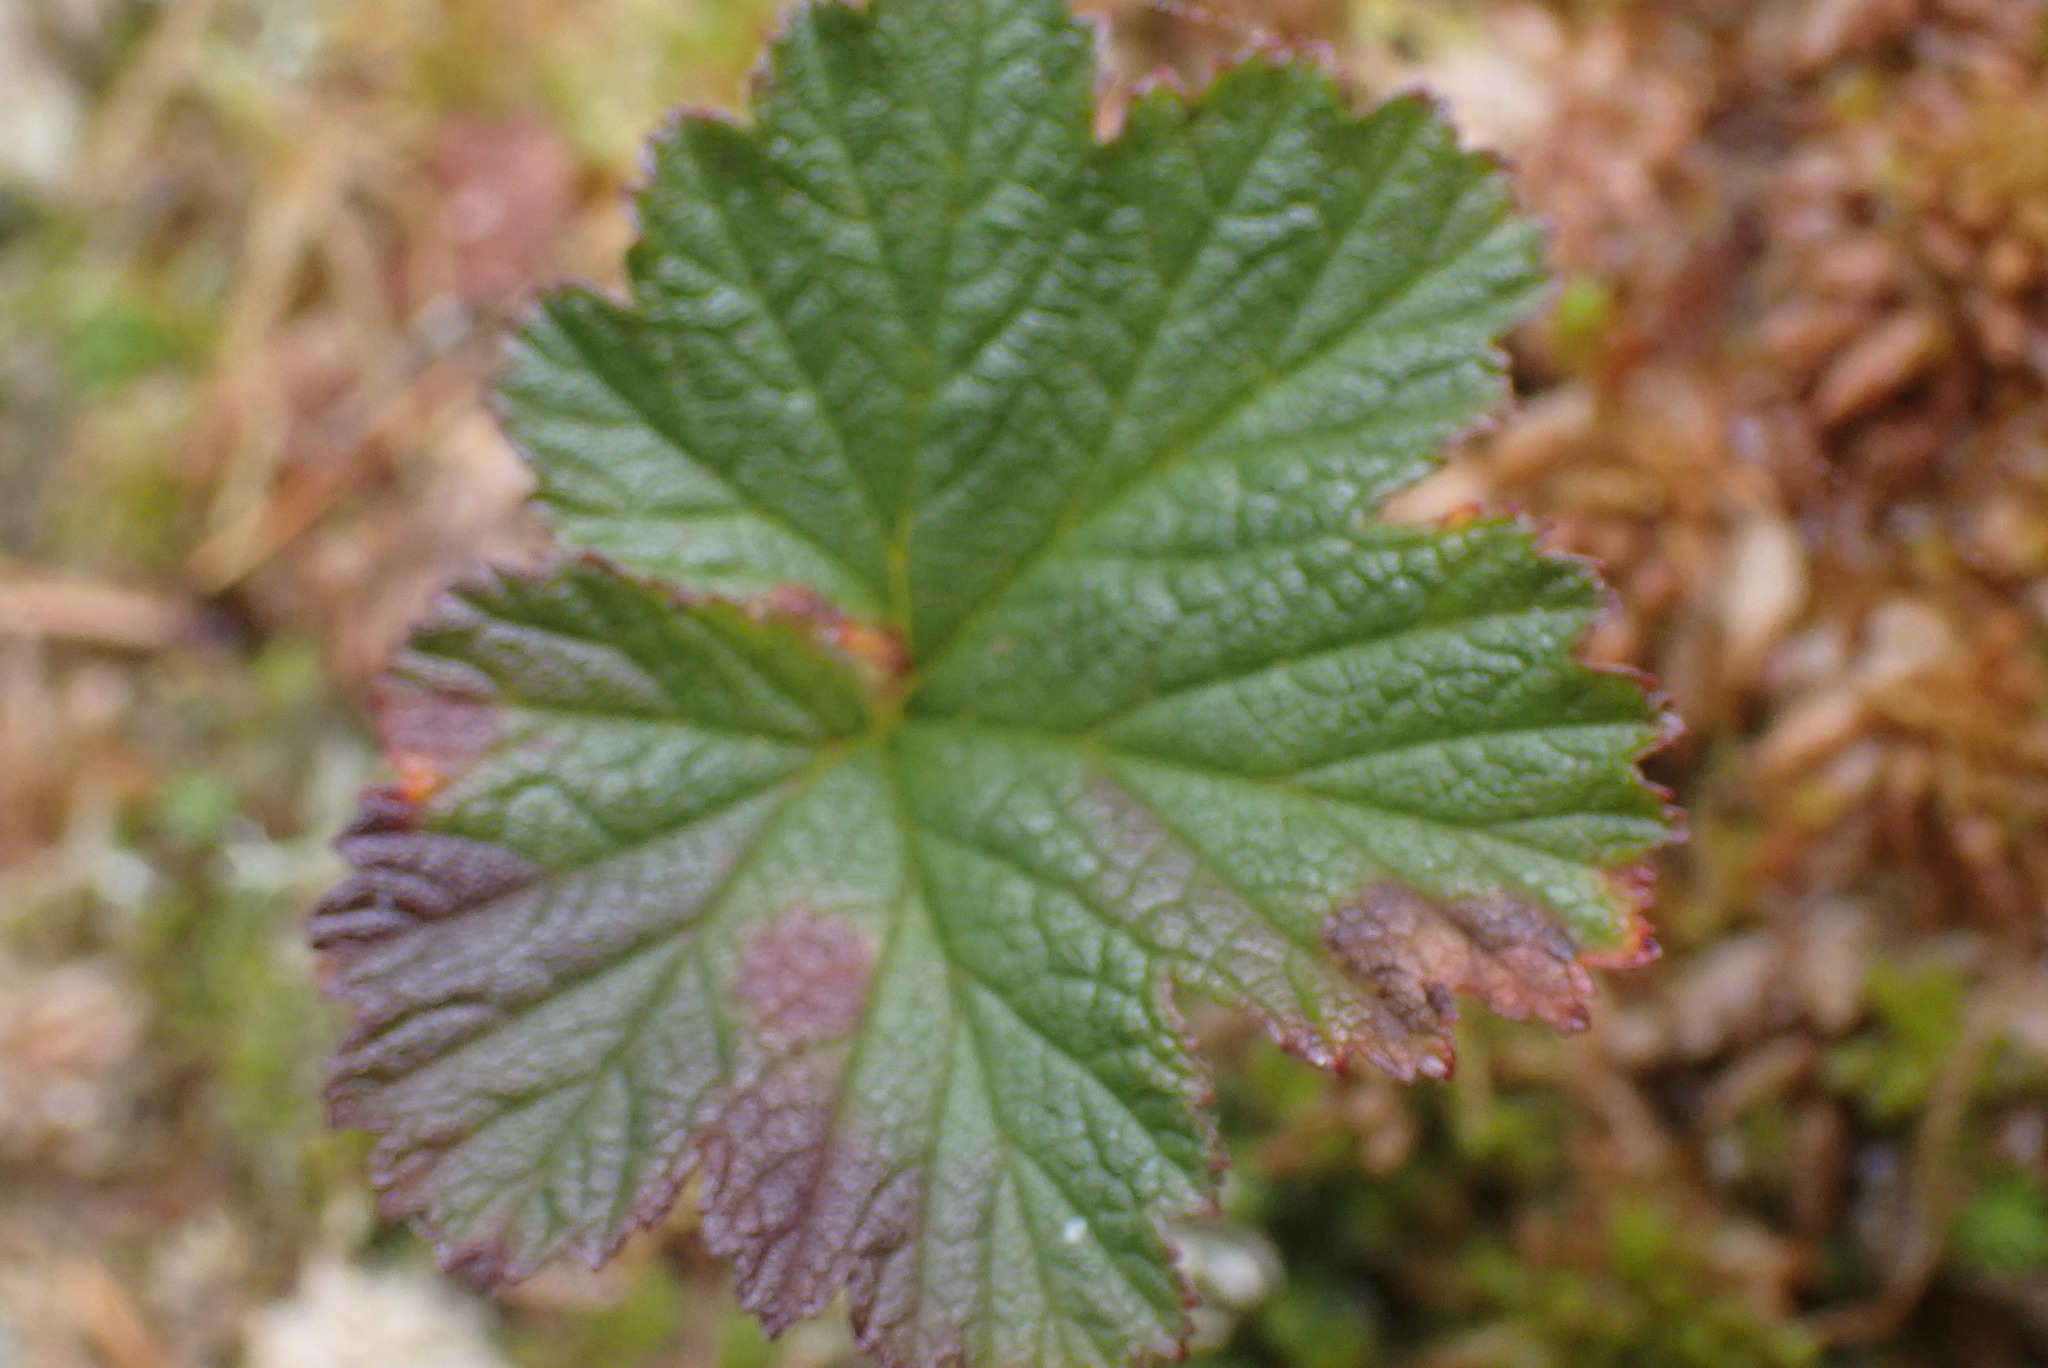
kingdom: Plantae
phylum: Tracheophyta
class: Magnoliopsida
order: Rosales
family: Rosaceae
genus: Rubus
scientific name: Rubus chamaemorus
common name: Cloudberry
